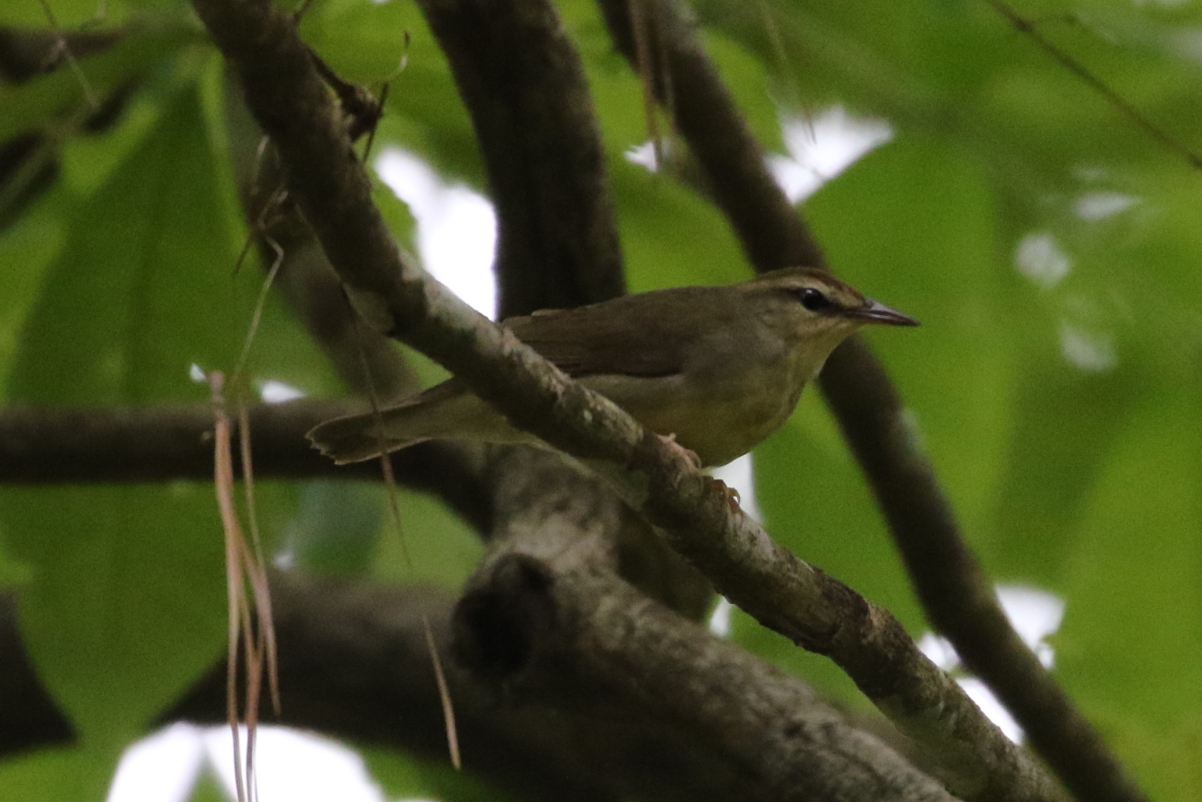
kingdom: Animalia
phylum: Chordata
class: Aves
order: Passeriformes
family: Parulidae
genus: Limnothlypis
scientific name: Limnothlypis swainsonii
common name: Swainson's warbler
